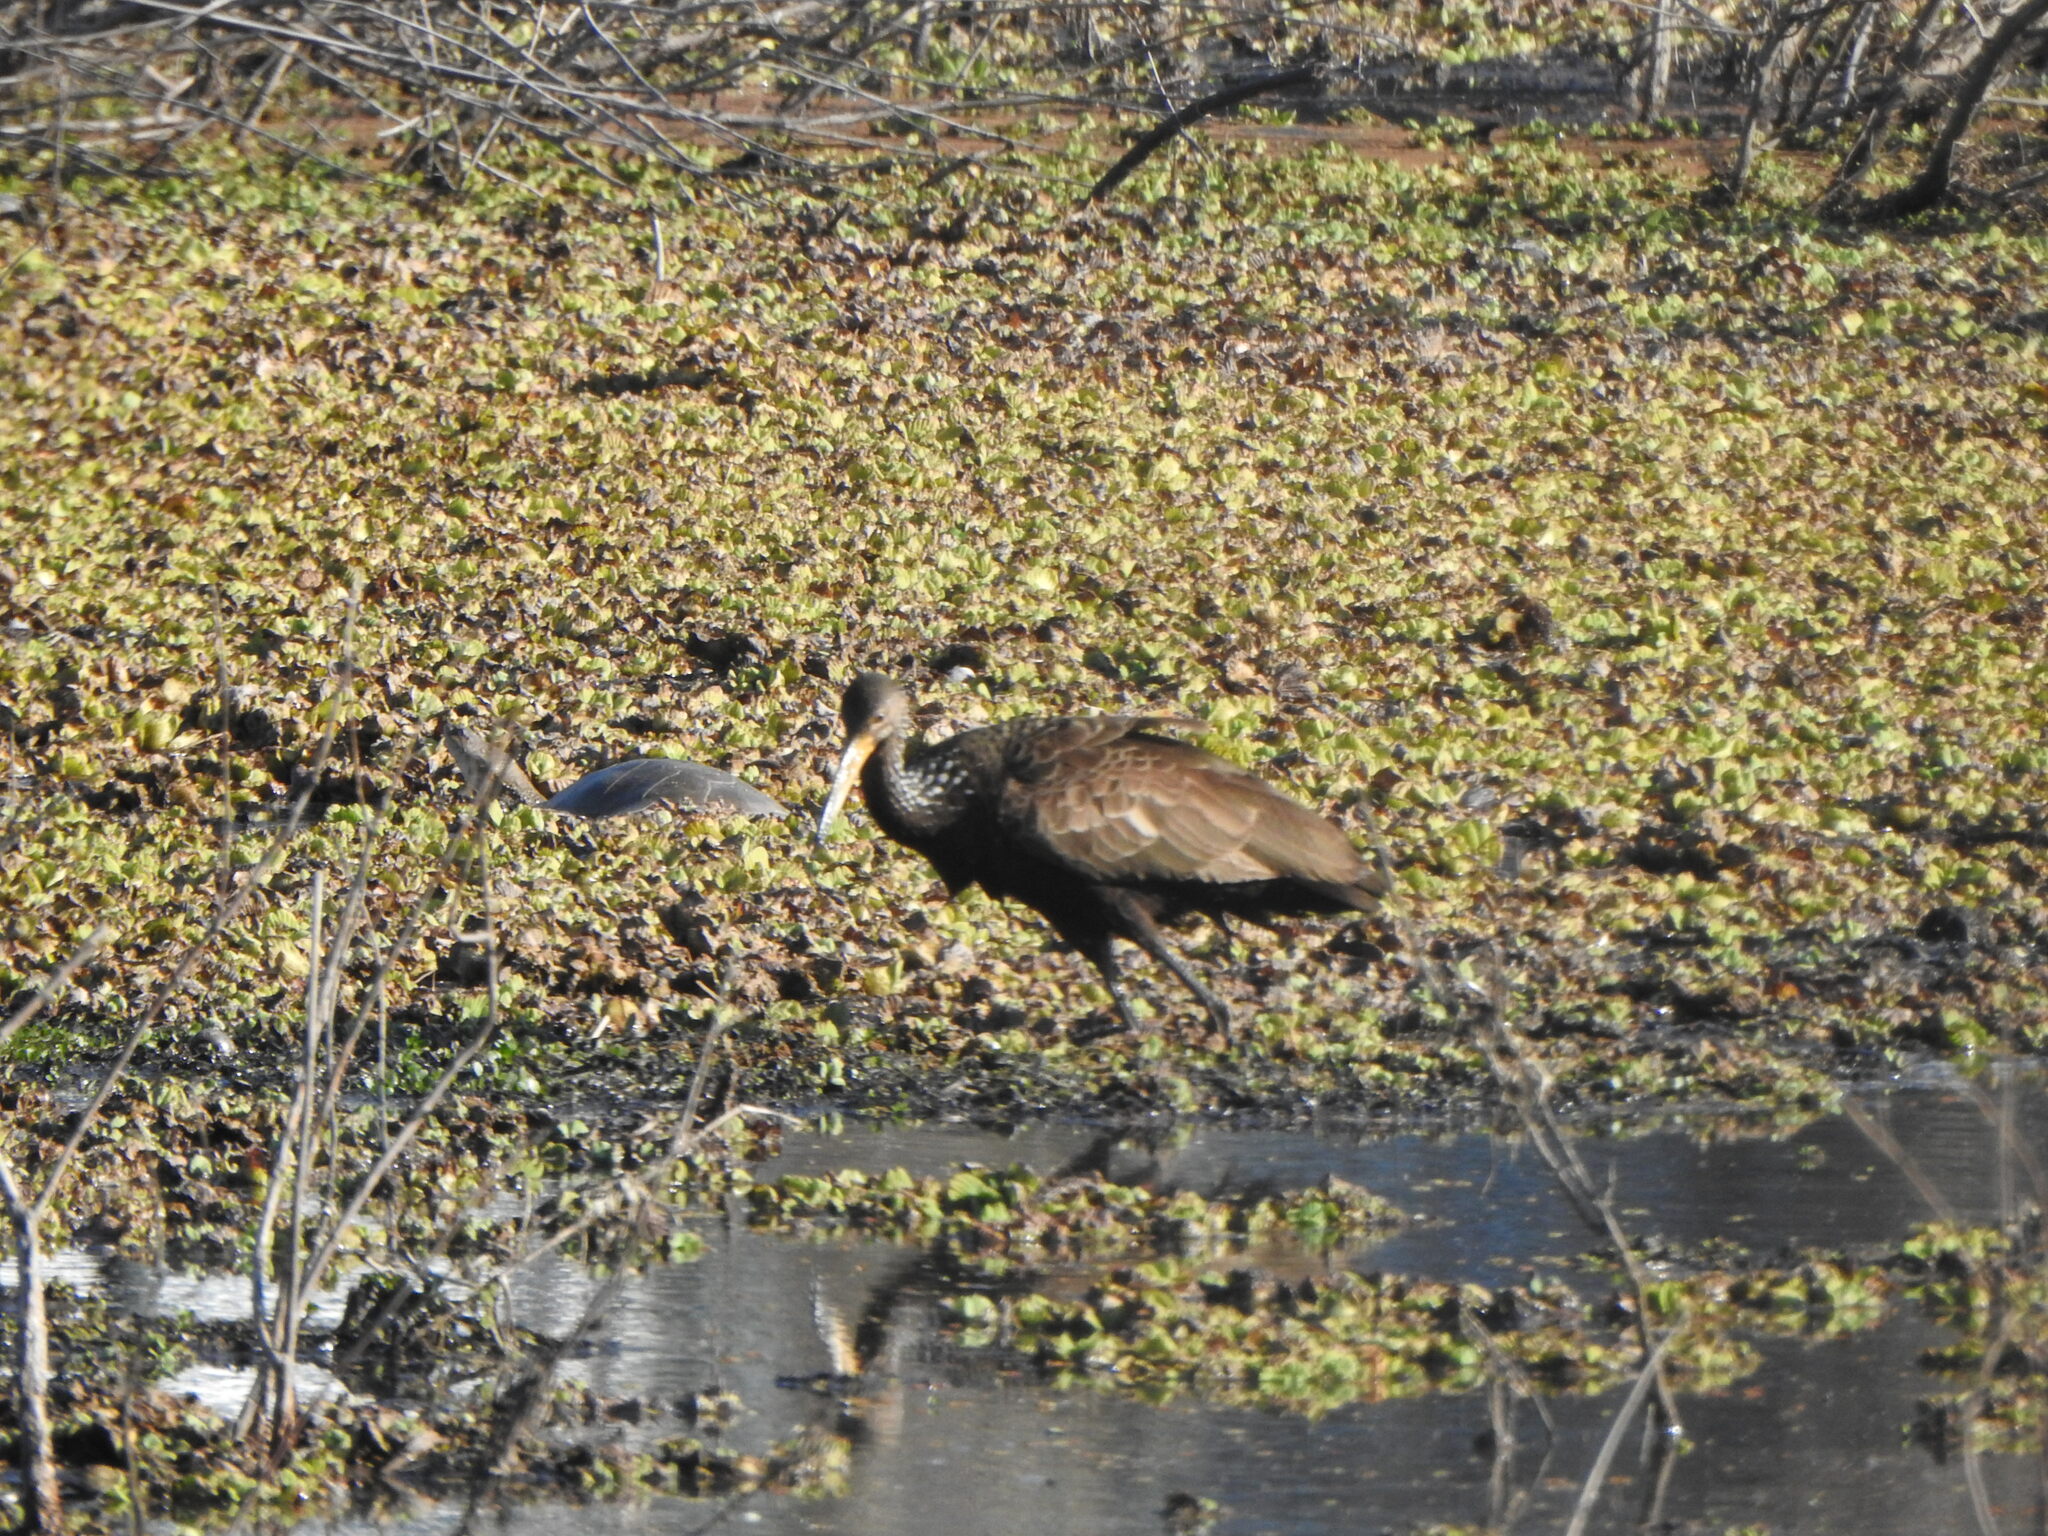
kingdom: Animalia
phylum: Chordata
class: Aves
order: Gruiformes
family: Aramidae
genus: Aramus
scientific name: Aramus guarauna
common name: Limpkin
